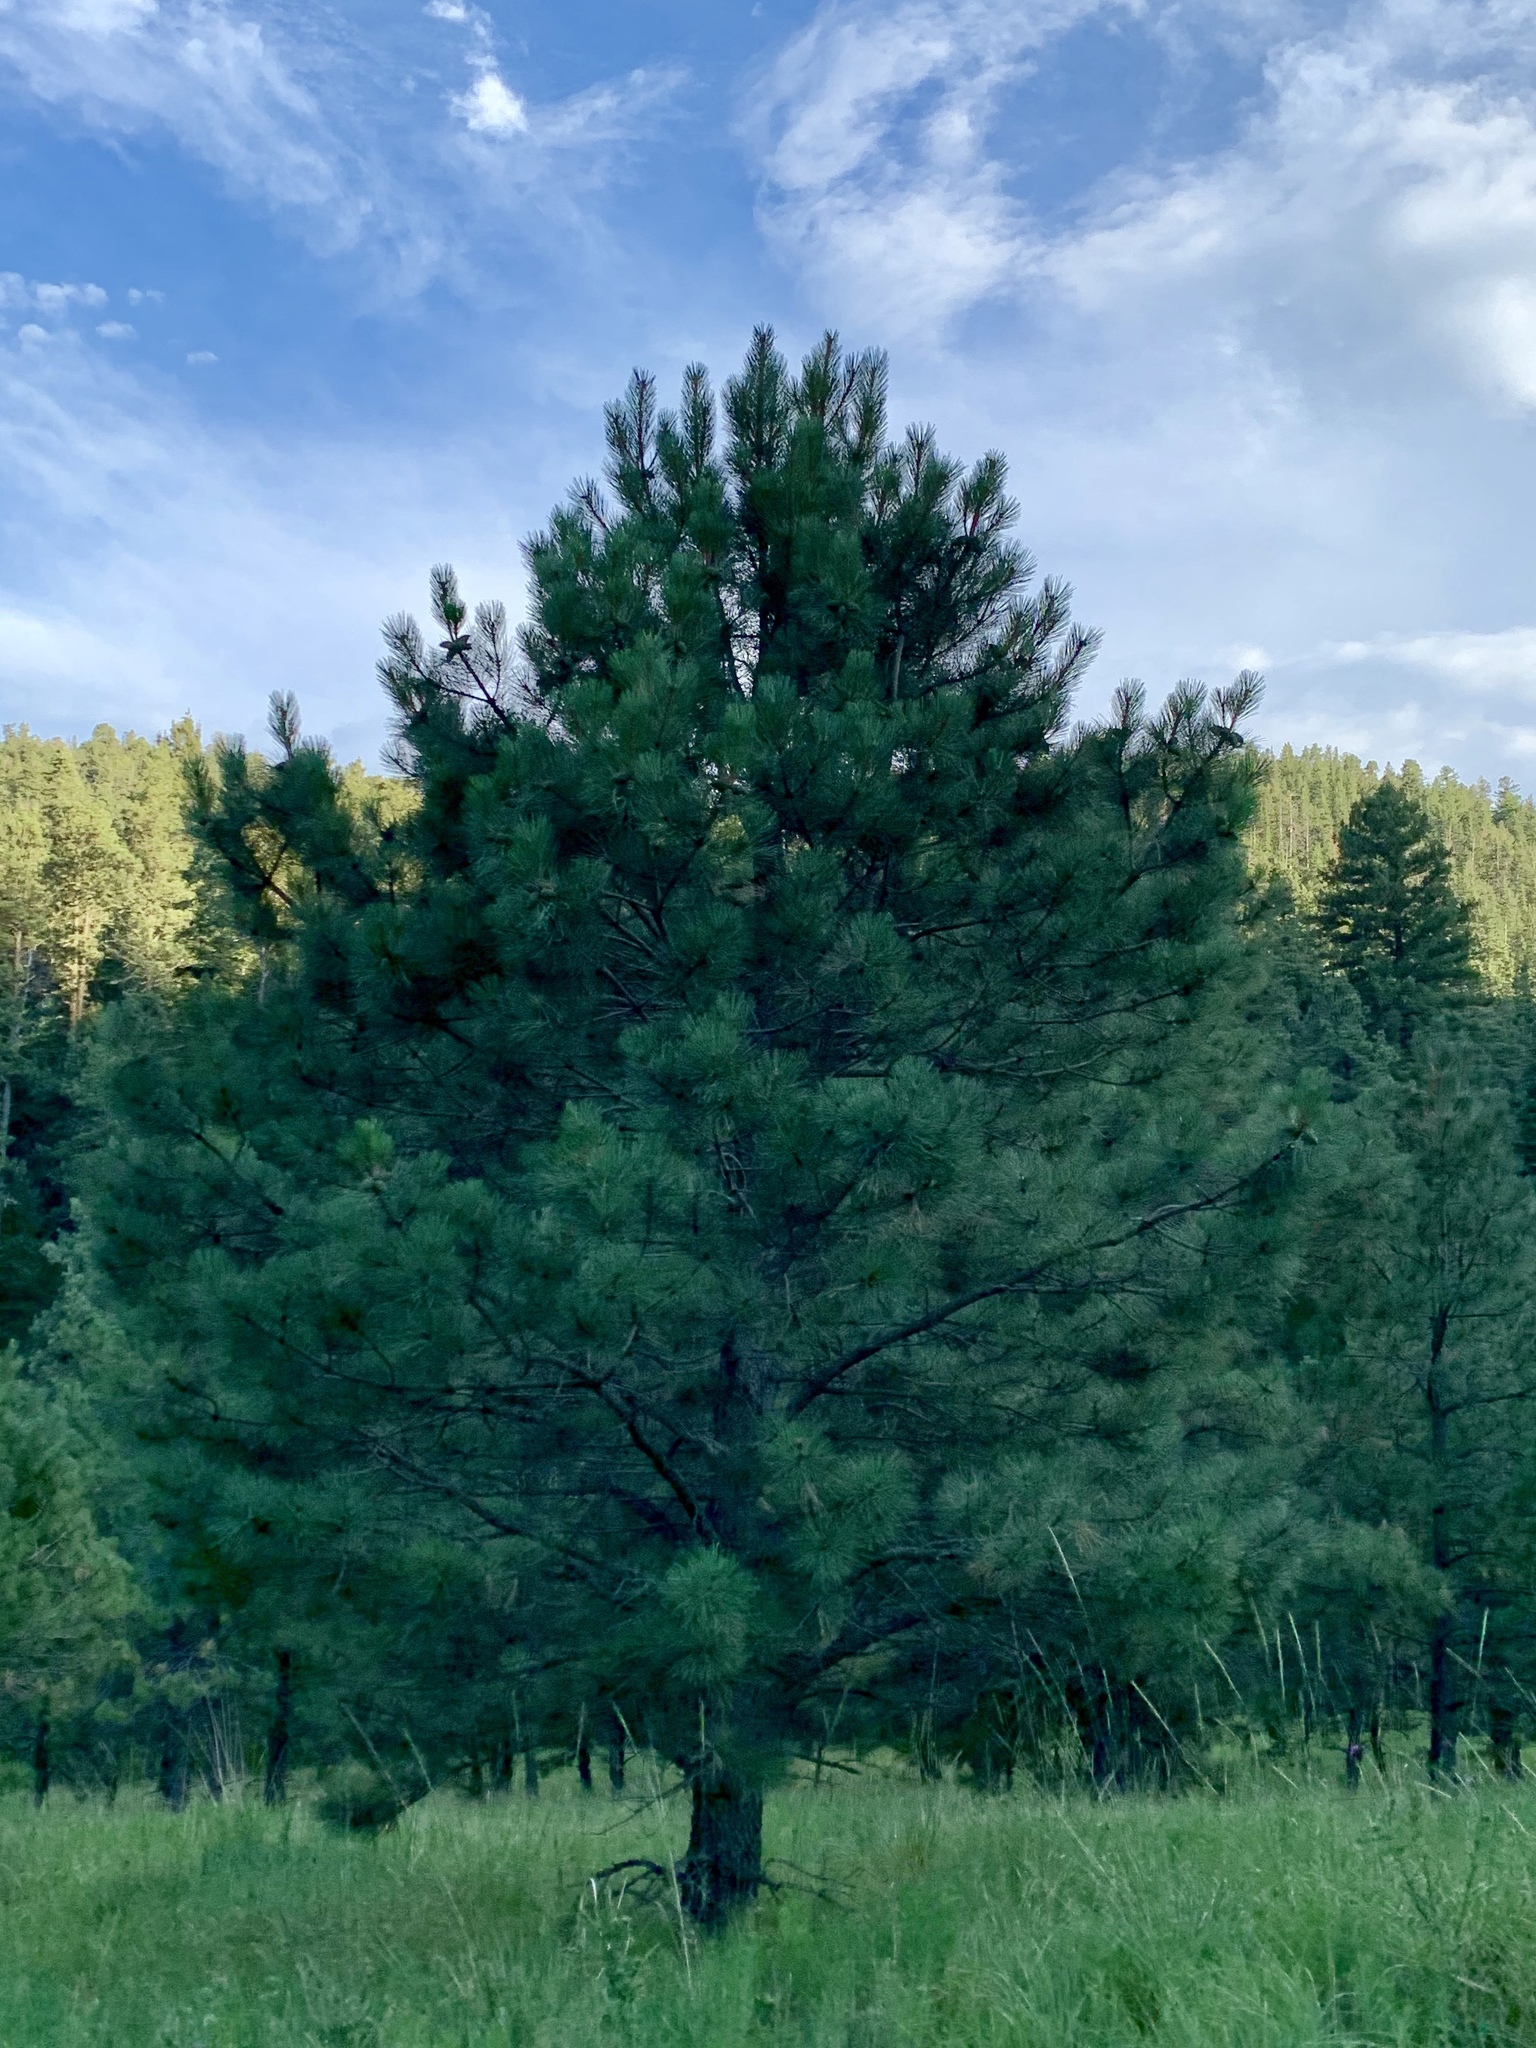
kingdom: Plantae
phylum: Tracheophyta
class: Pinopsida
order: Pinales
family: Pinaceae
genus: Pinus
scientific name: Pinus ponderosa
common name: Western yellow-pine
